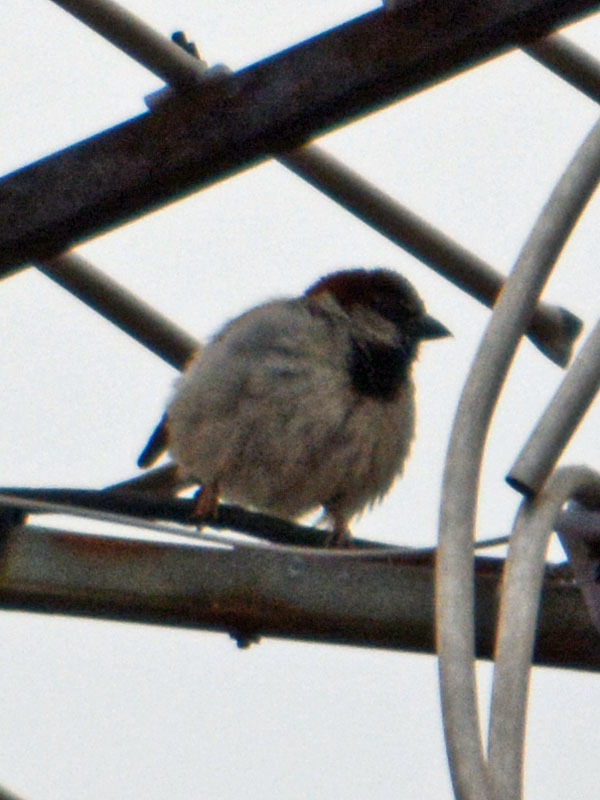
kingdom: Animalia
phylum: Chordata
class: Aves
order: Passeriformes
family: Passeridae
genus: Passer
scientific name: Passer domesticus
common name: House sparrow
